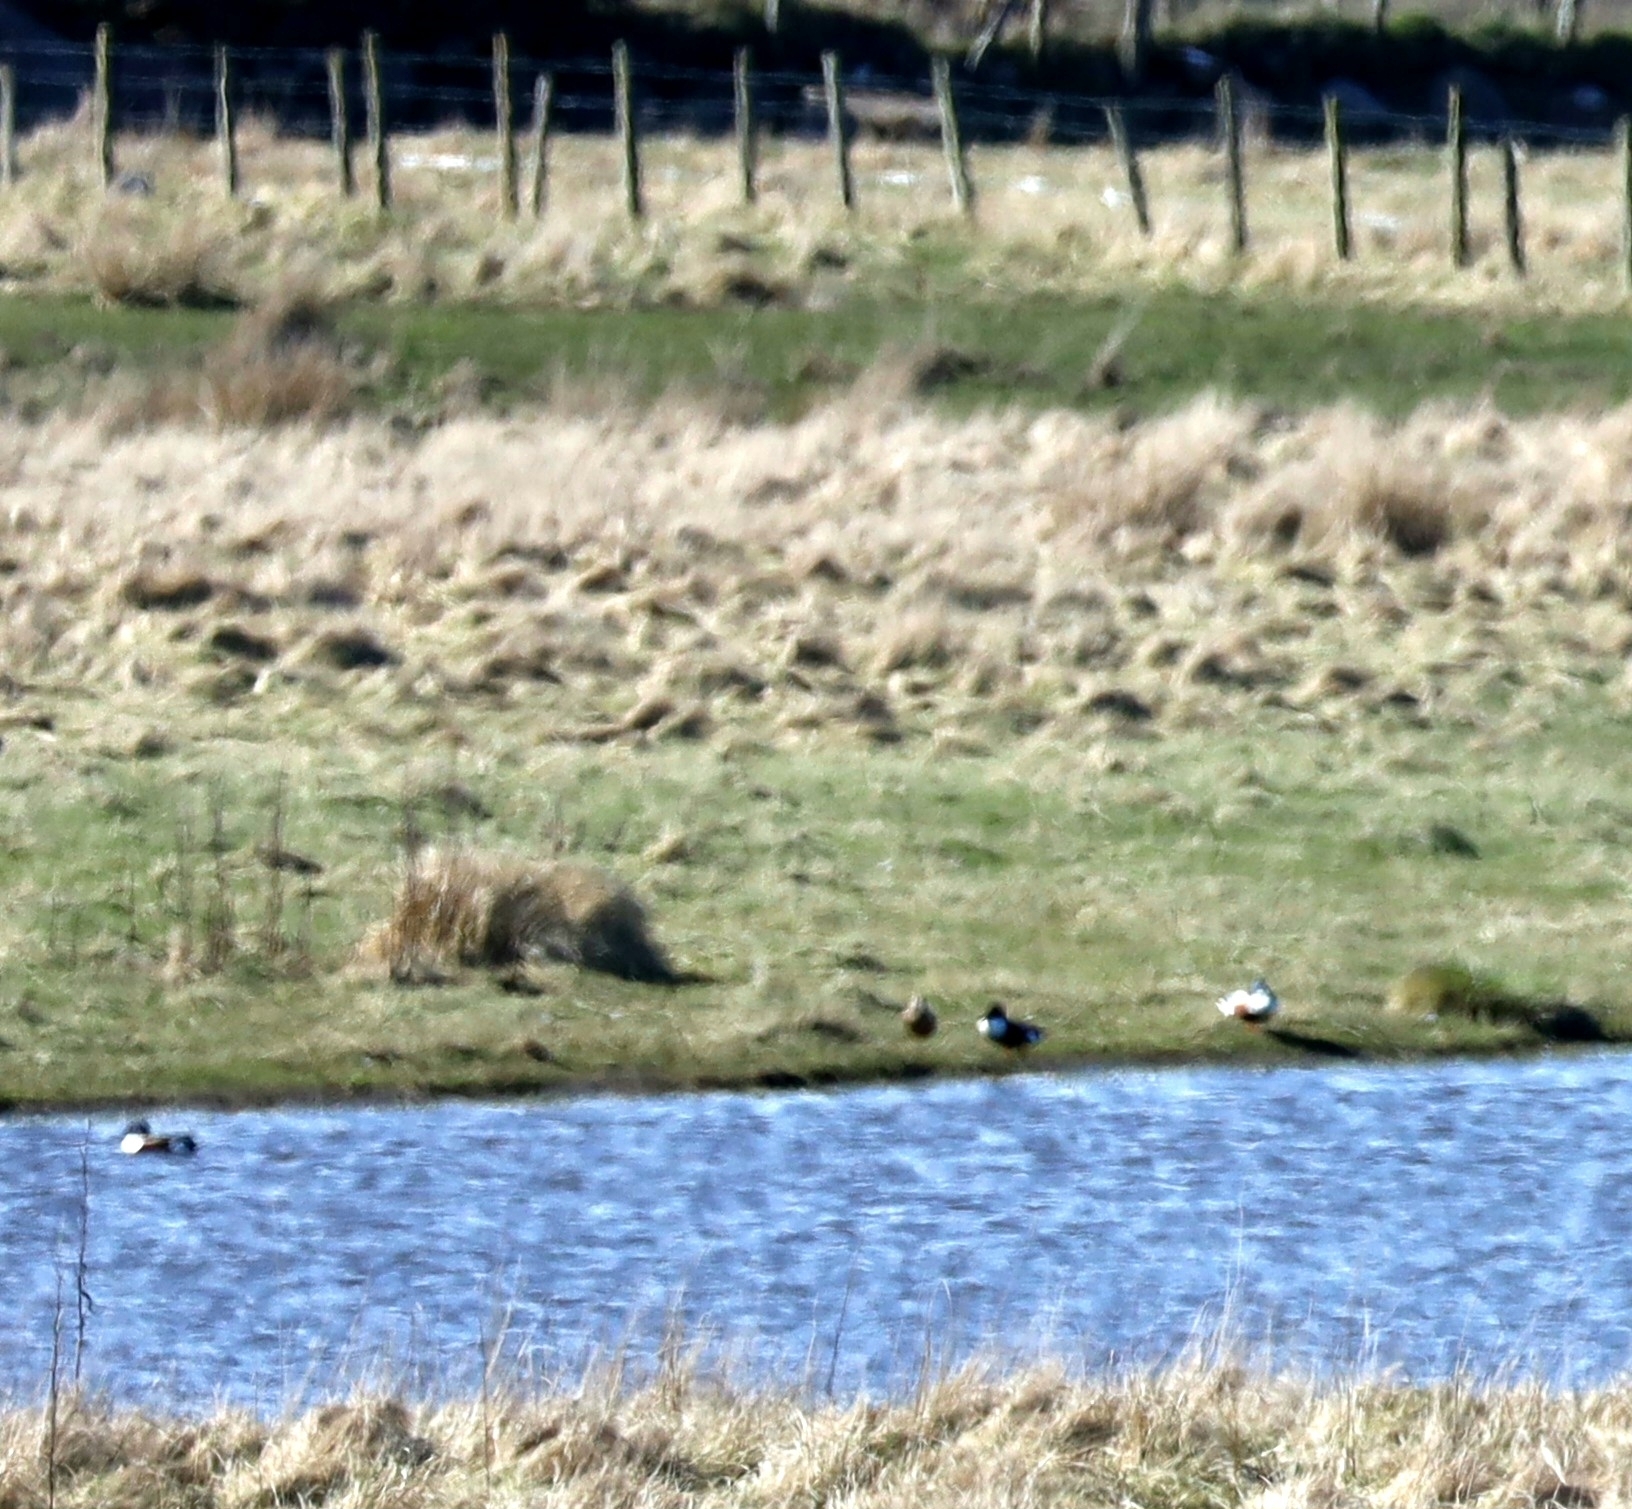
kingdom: Animalia
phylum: Chordata
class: Aves
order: Anseriformes
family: Anatidae
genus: Spatula
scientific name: Spatula clypeata
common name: Northern shoveler
